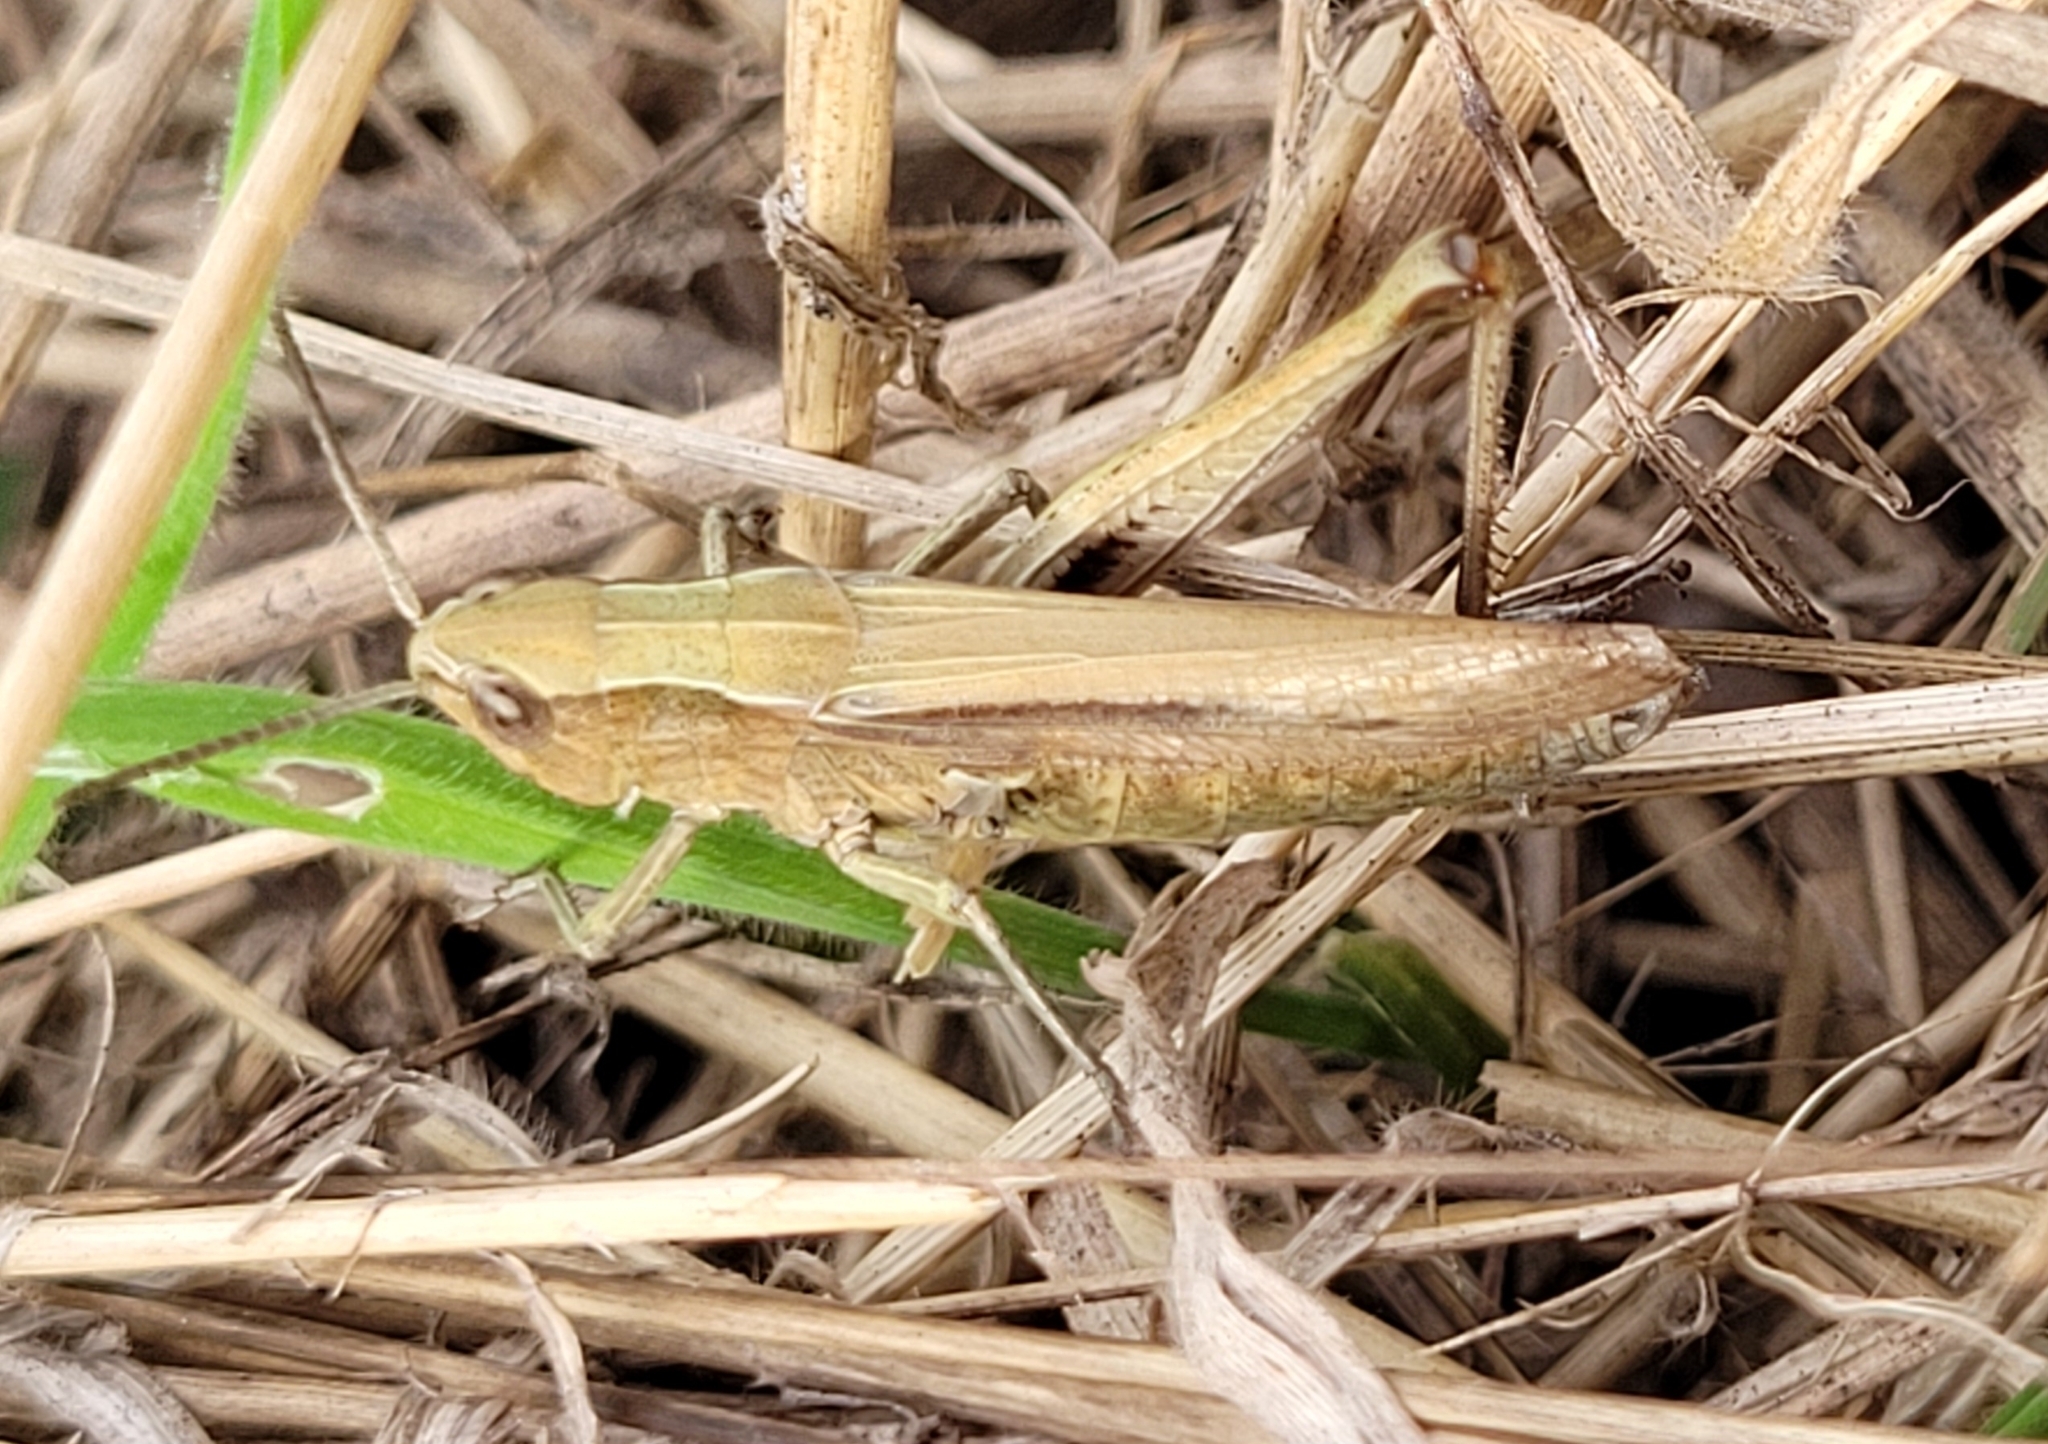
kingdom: Animalia
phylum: Arthropoda
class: Insecta
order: Orthoptera
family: Acrididae
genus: Chorthippus
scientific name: Chorthippus dorsatus
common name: Steppe grasshopper
